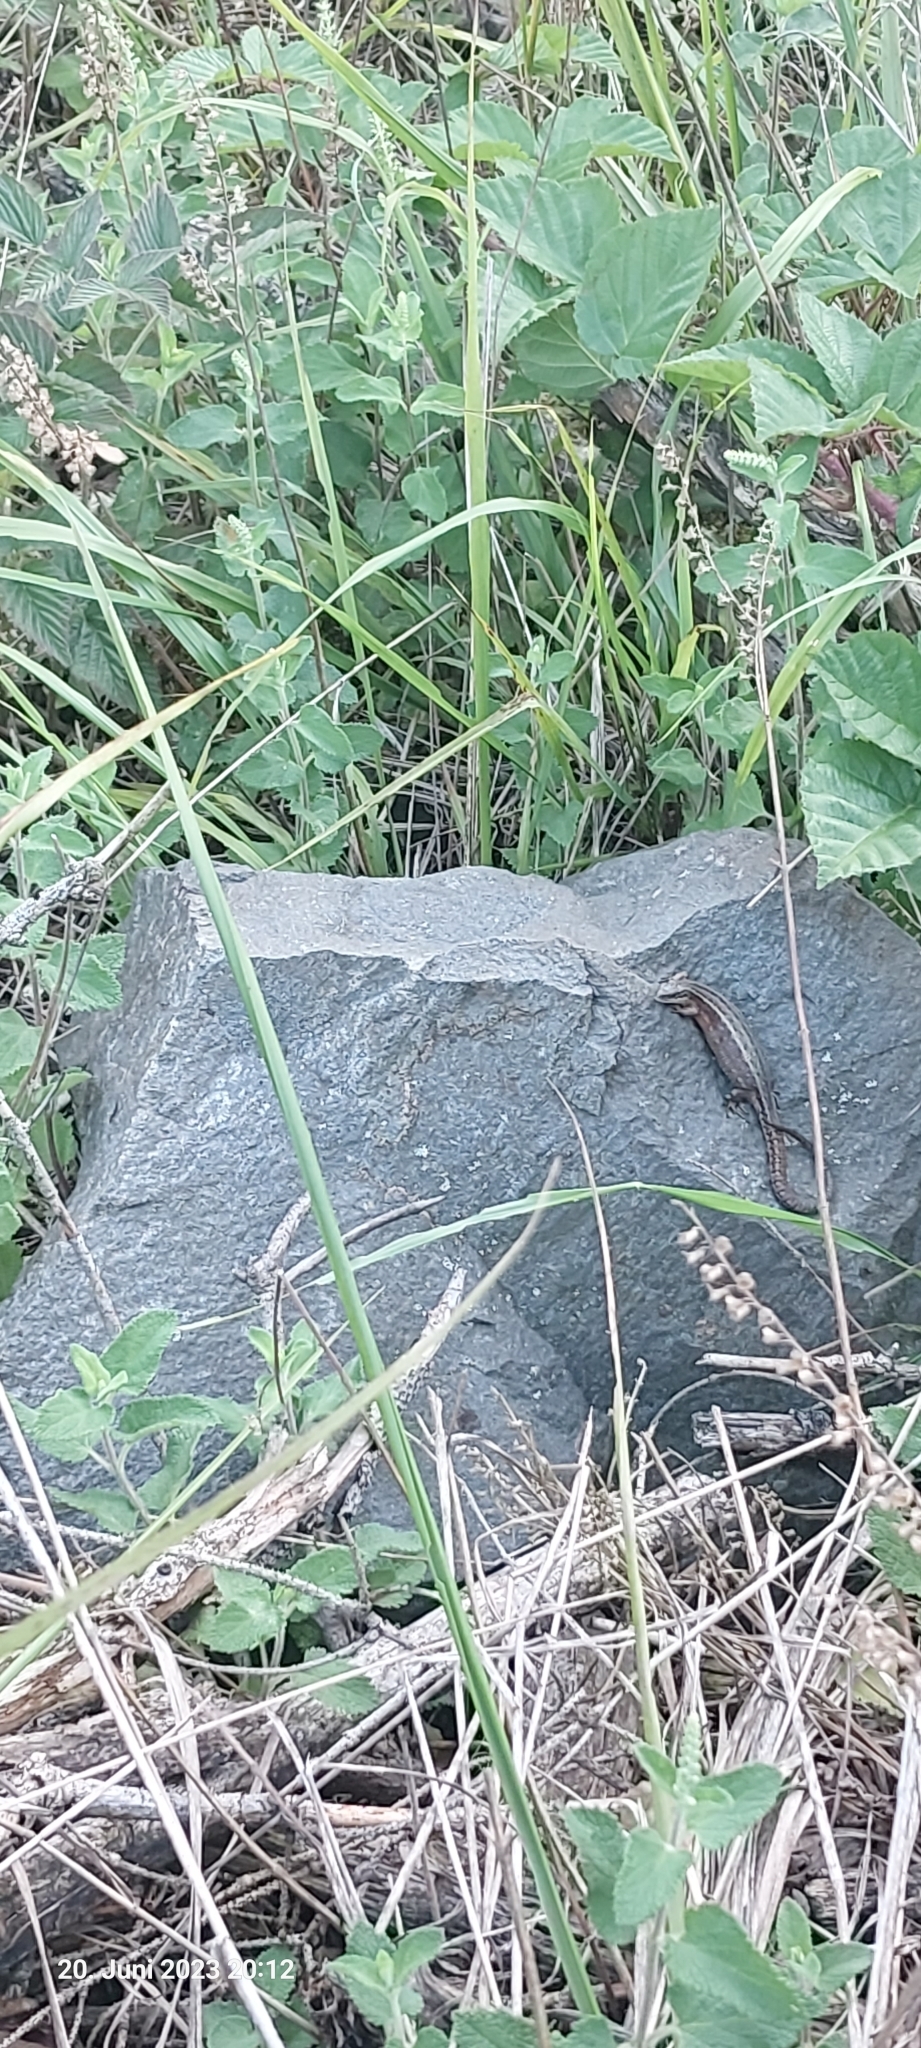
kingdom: Animalia
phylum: Chordata
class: Squamata
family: Lacertidae
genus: Zootoca
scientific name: Zootoca vivipara
